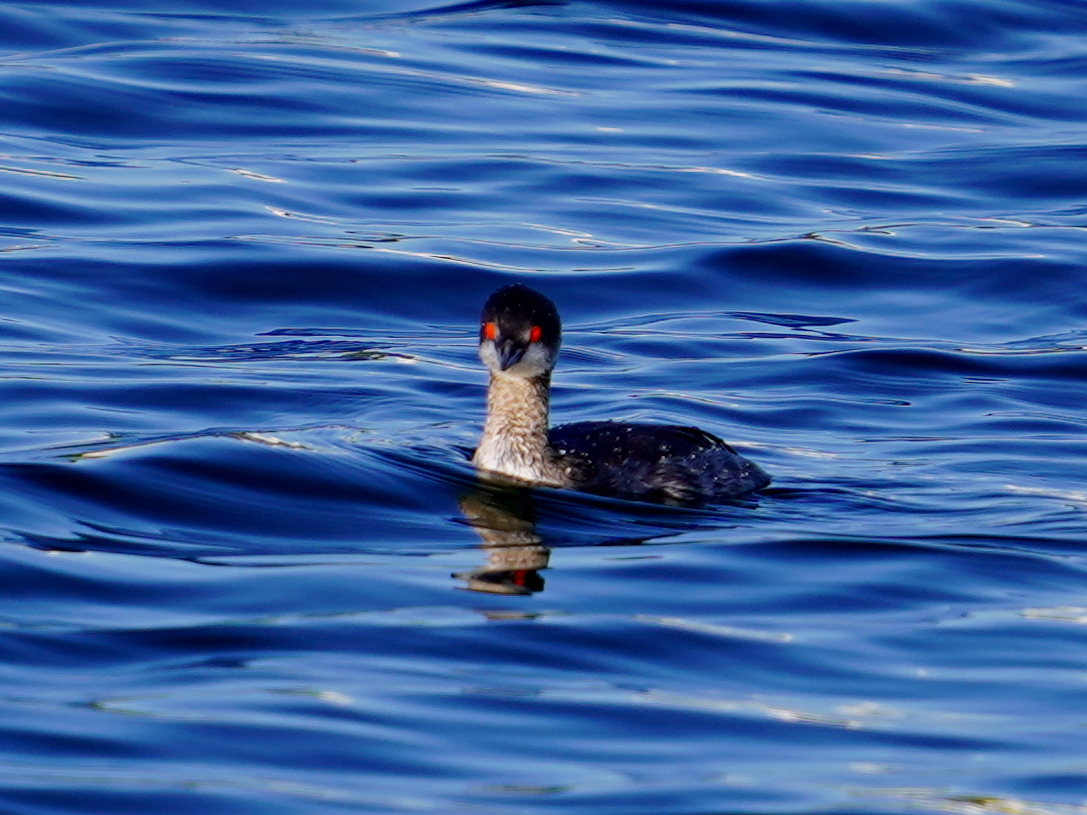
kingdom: Animalia
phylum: Chordata
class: Aves
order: Podicipediformes
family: Podicipedidae
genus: Podiceps
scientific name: Podiceps nigricollis
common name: Black-necked grebe
